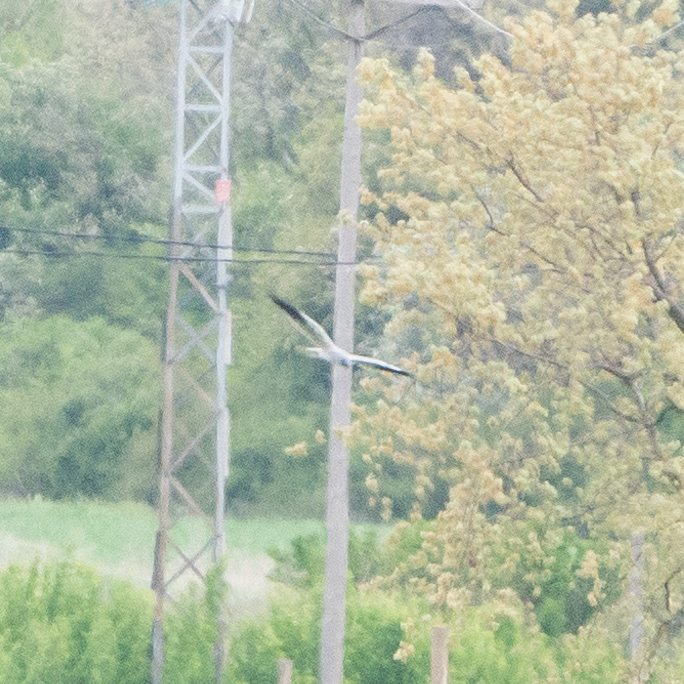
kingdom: Animalia
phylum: Chordata
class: Aves
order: Accipitriformes
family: Accipitridae
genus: Circus
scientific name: Circus pygargus
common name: Montagu's harrier
